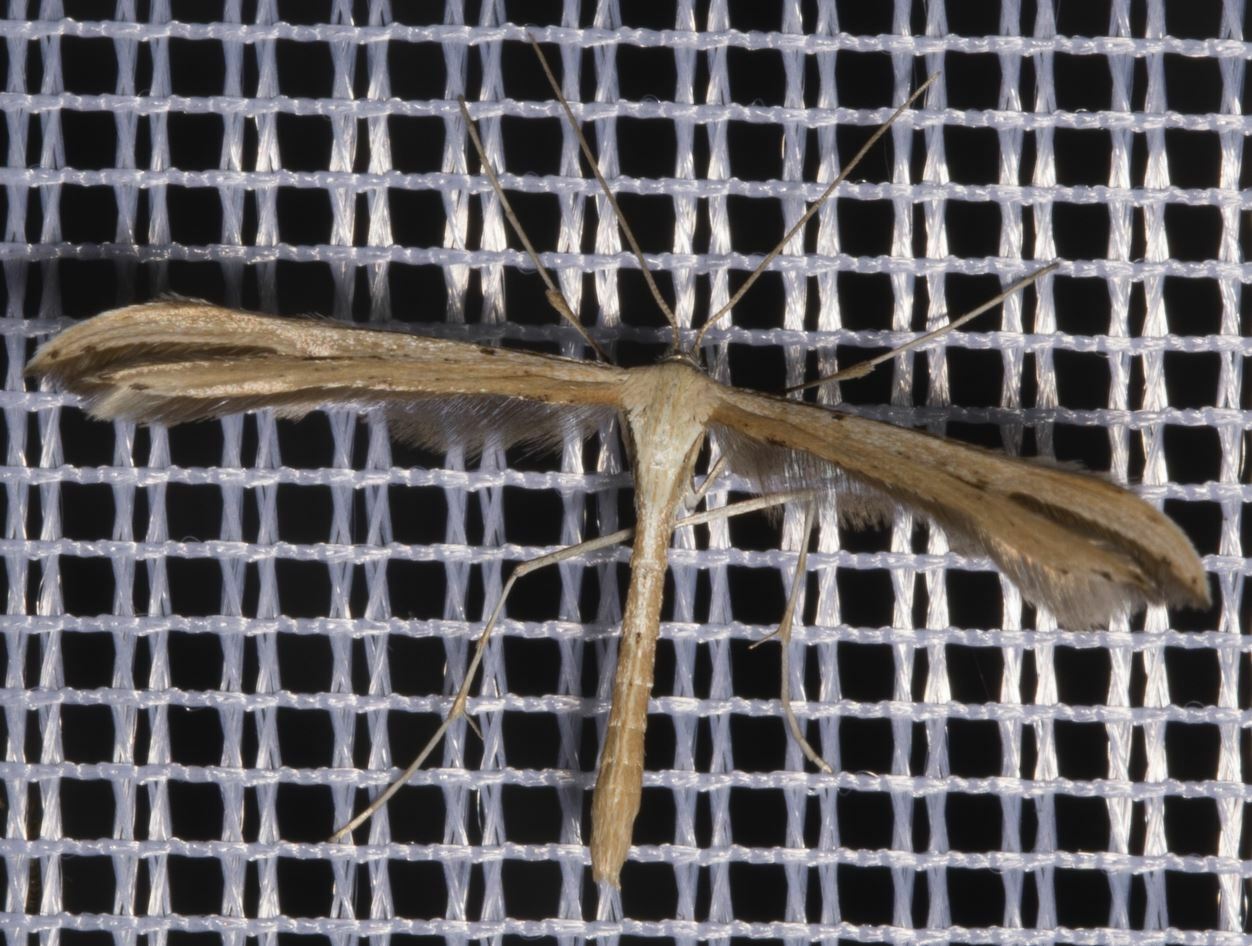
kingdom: Animalia
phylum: Arthropoda
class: Insecta
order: Lepidoptera
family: Pterophoridae
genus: Emmelina
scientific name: Emmelina monodactyla
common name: Common plume
